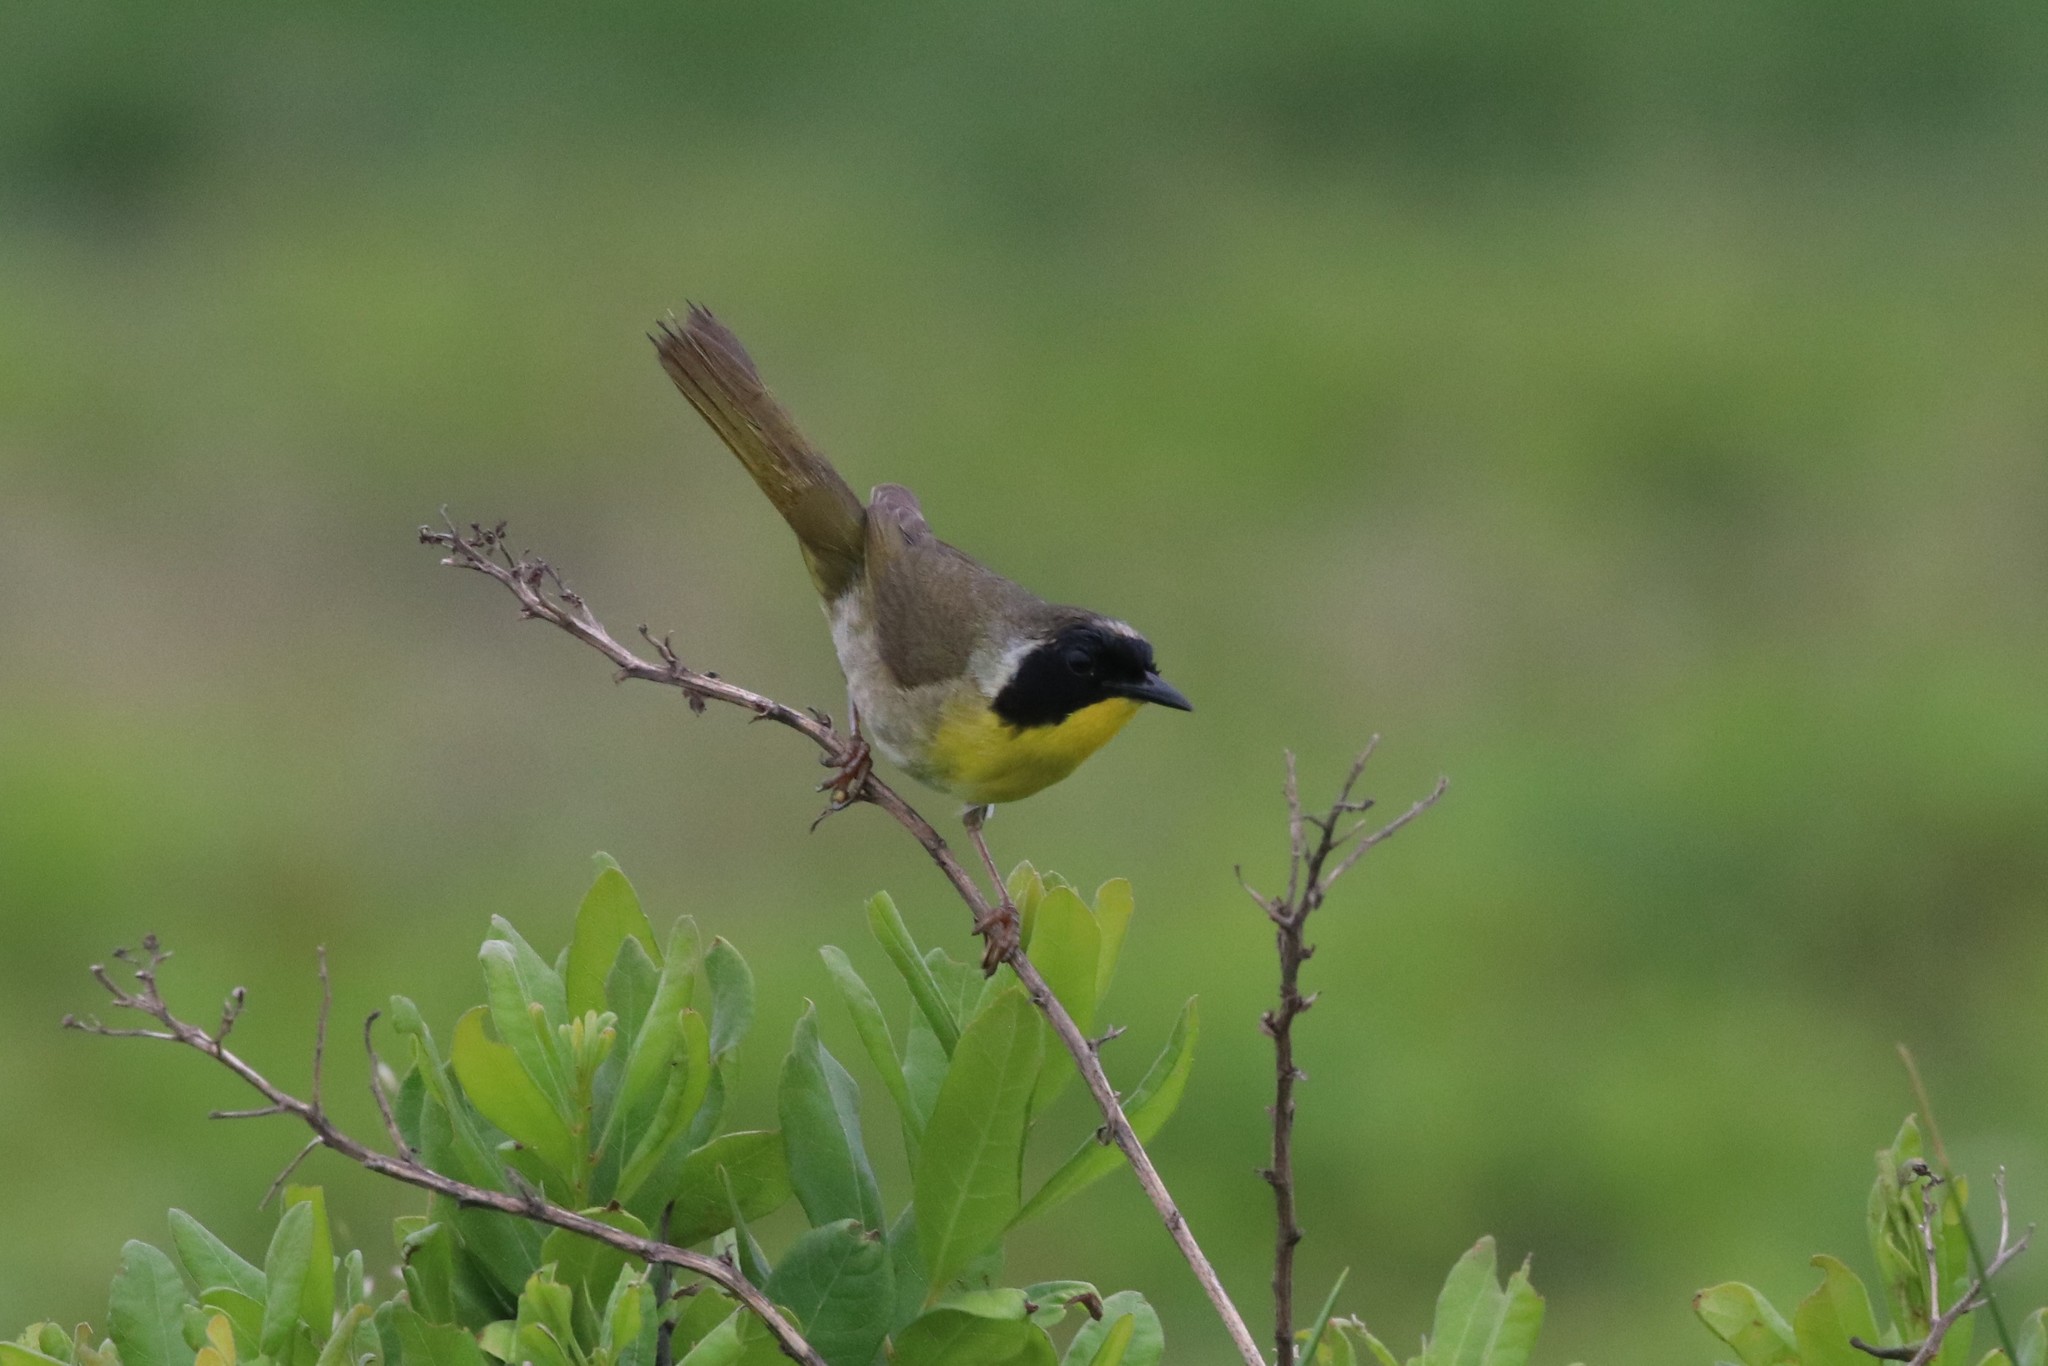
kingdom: Animalia
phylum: Chordata
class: Aves
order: Passeriformes
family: Parulidae
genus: Geothlypis
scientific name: Geothlypis trichas
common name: Common yellowthroat
